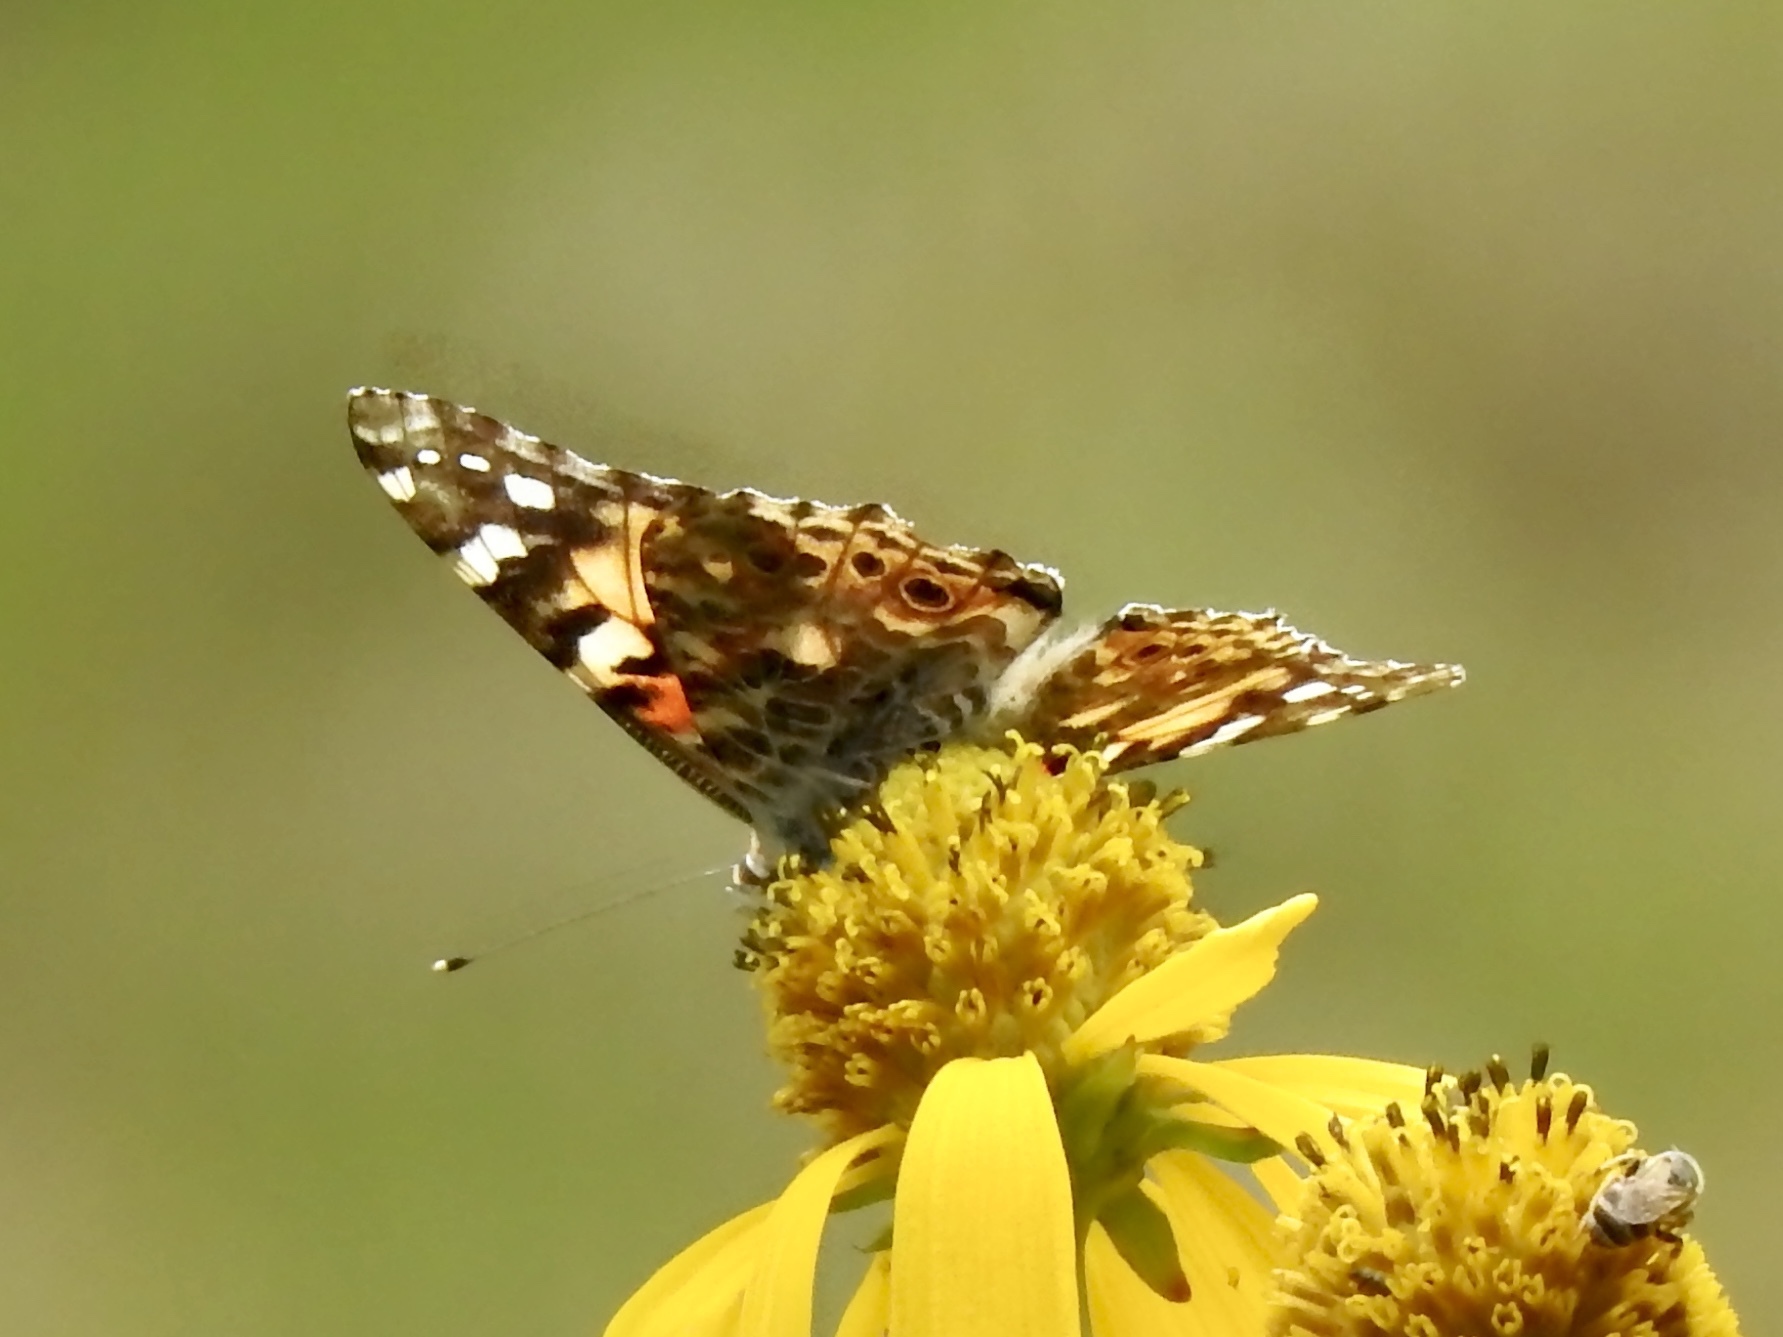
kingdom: Animalia
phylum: Arthropoda
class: Insecta
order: Lepidoptera
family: Nymphalidae
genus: Vanessa
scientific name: Vanessa cardui
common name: Painted lady
